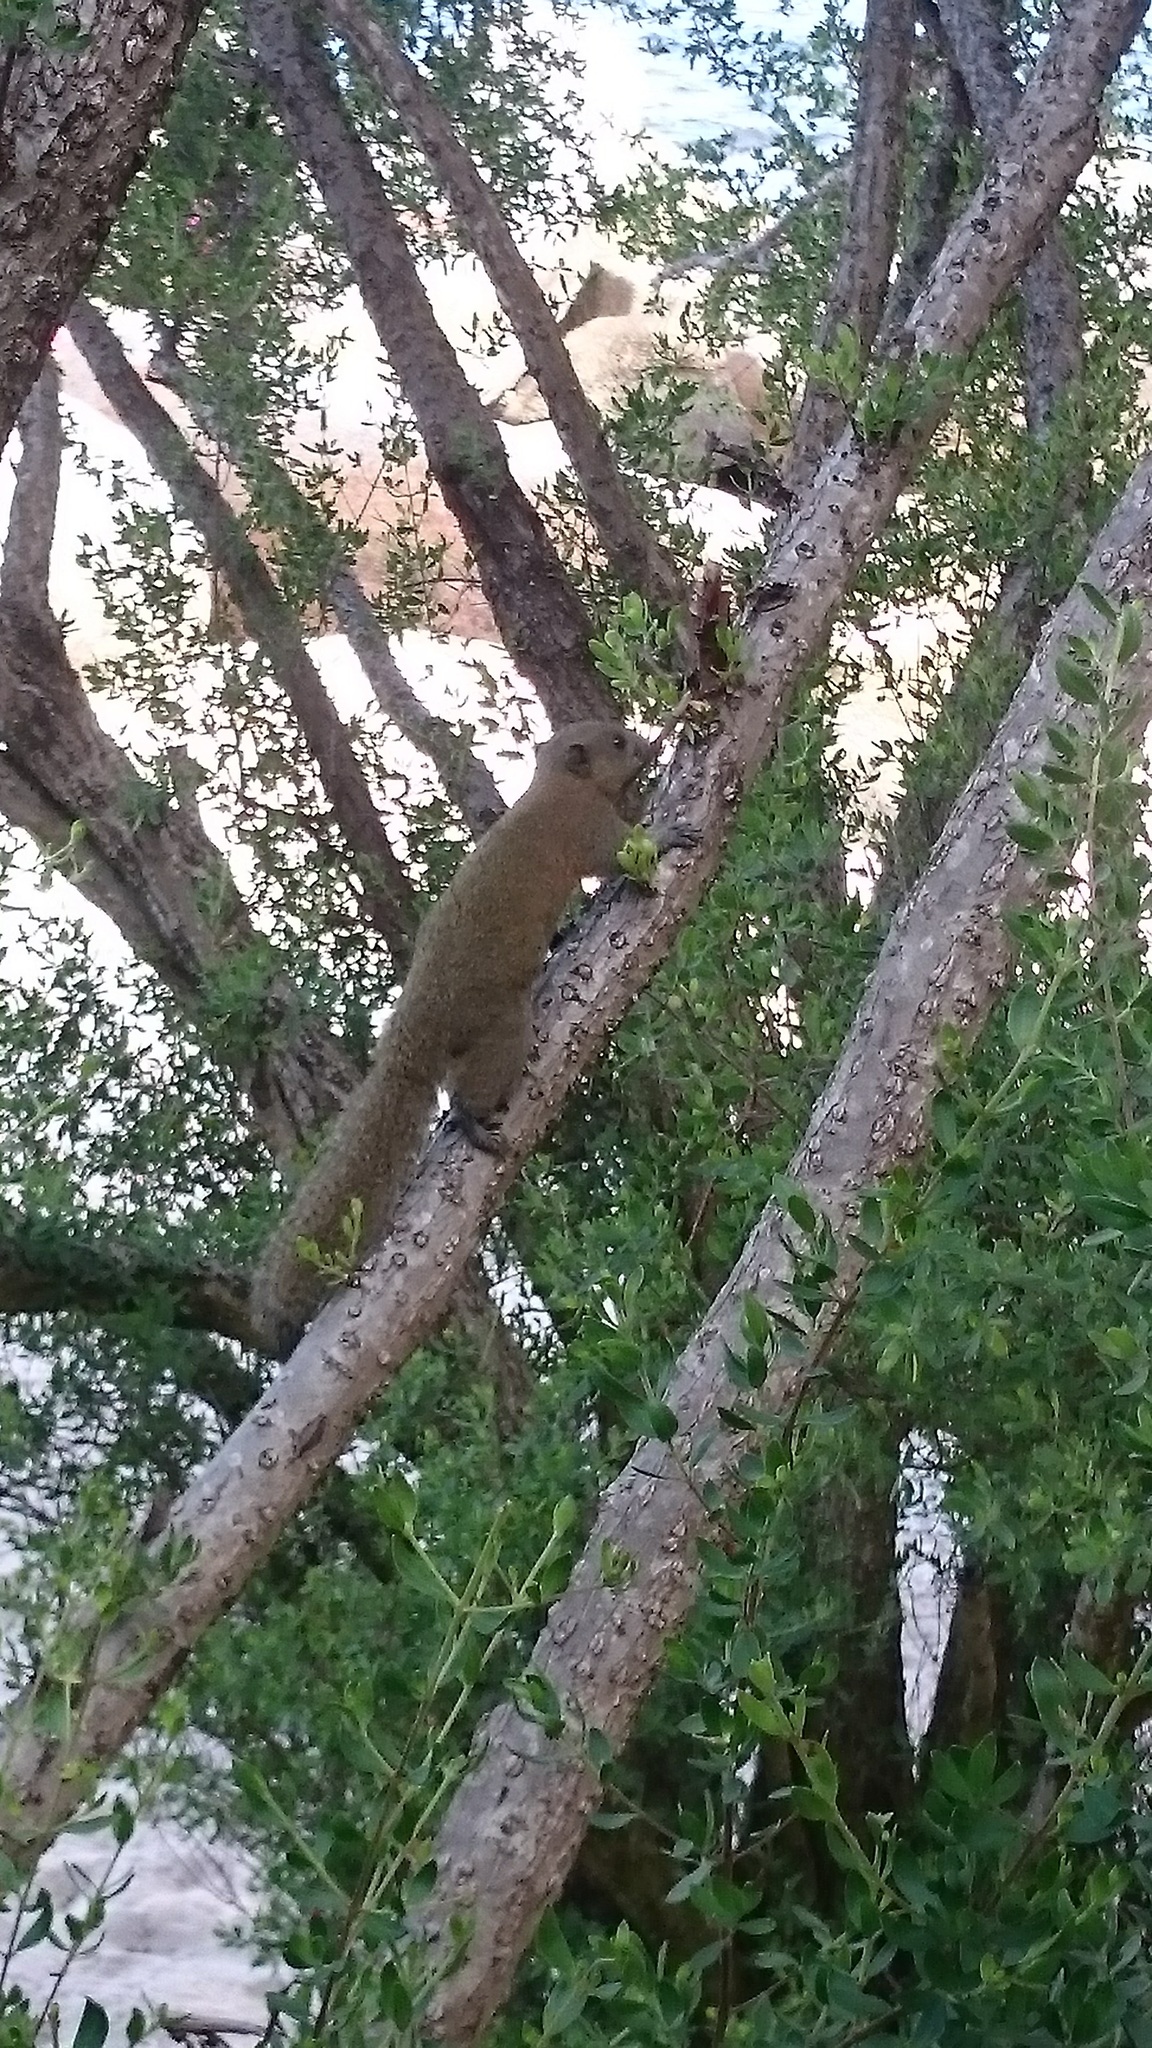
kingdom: Animalia
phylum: Chordata
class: Mammalia
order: Rodentia
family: Sciuridae
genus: Callosciurus
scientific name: Callosciurus caniceps
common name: Gray-bellied squirrel
